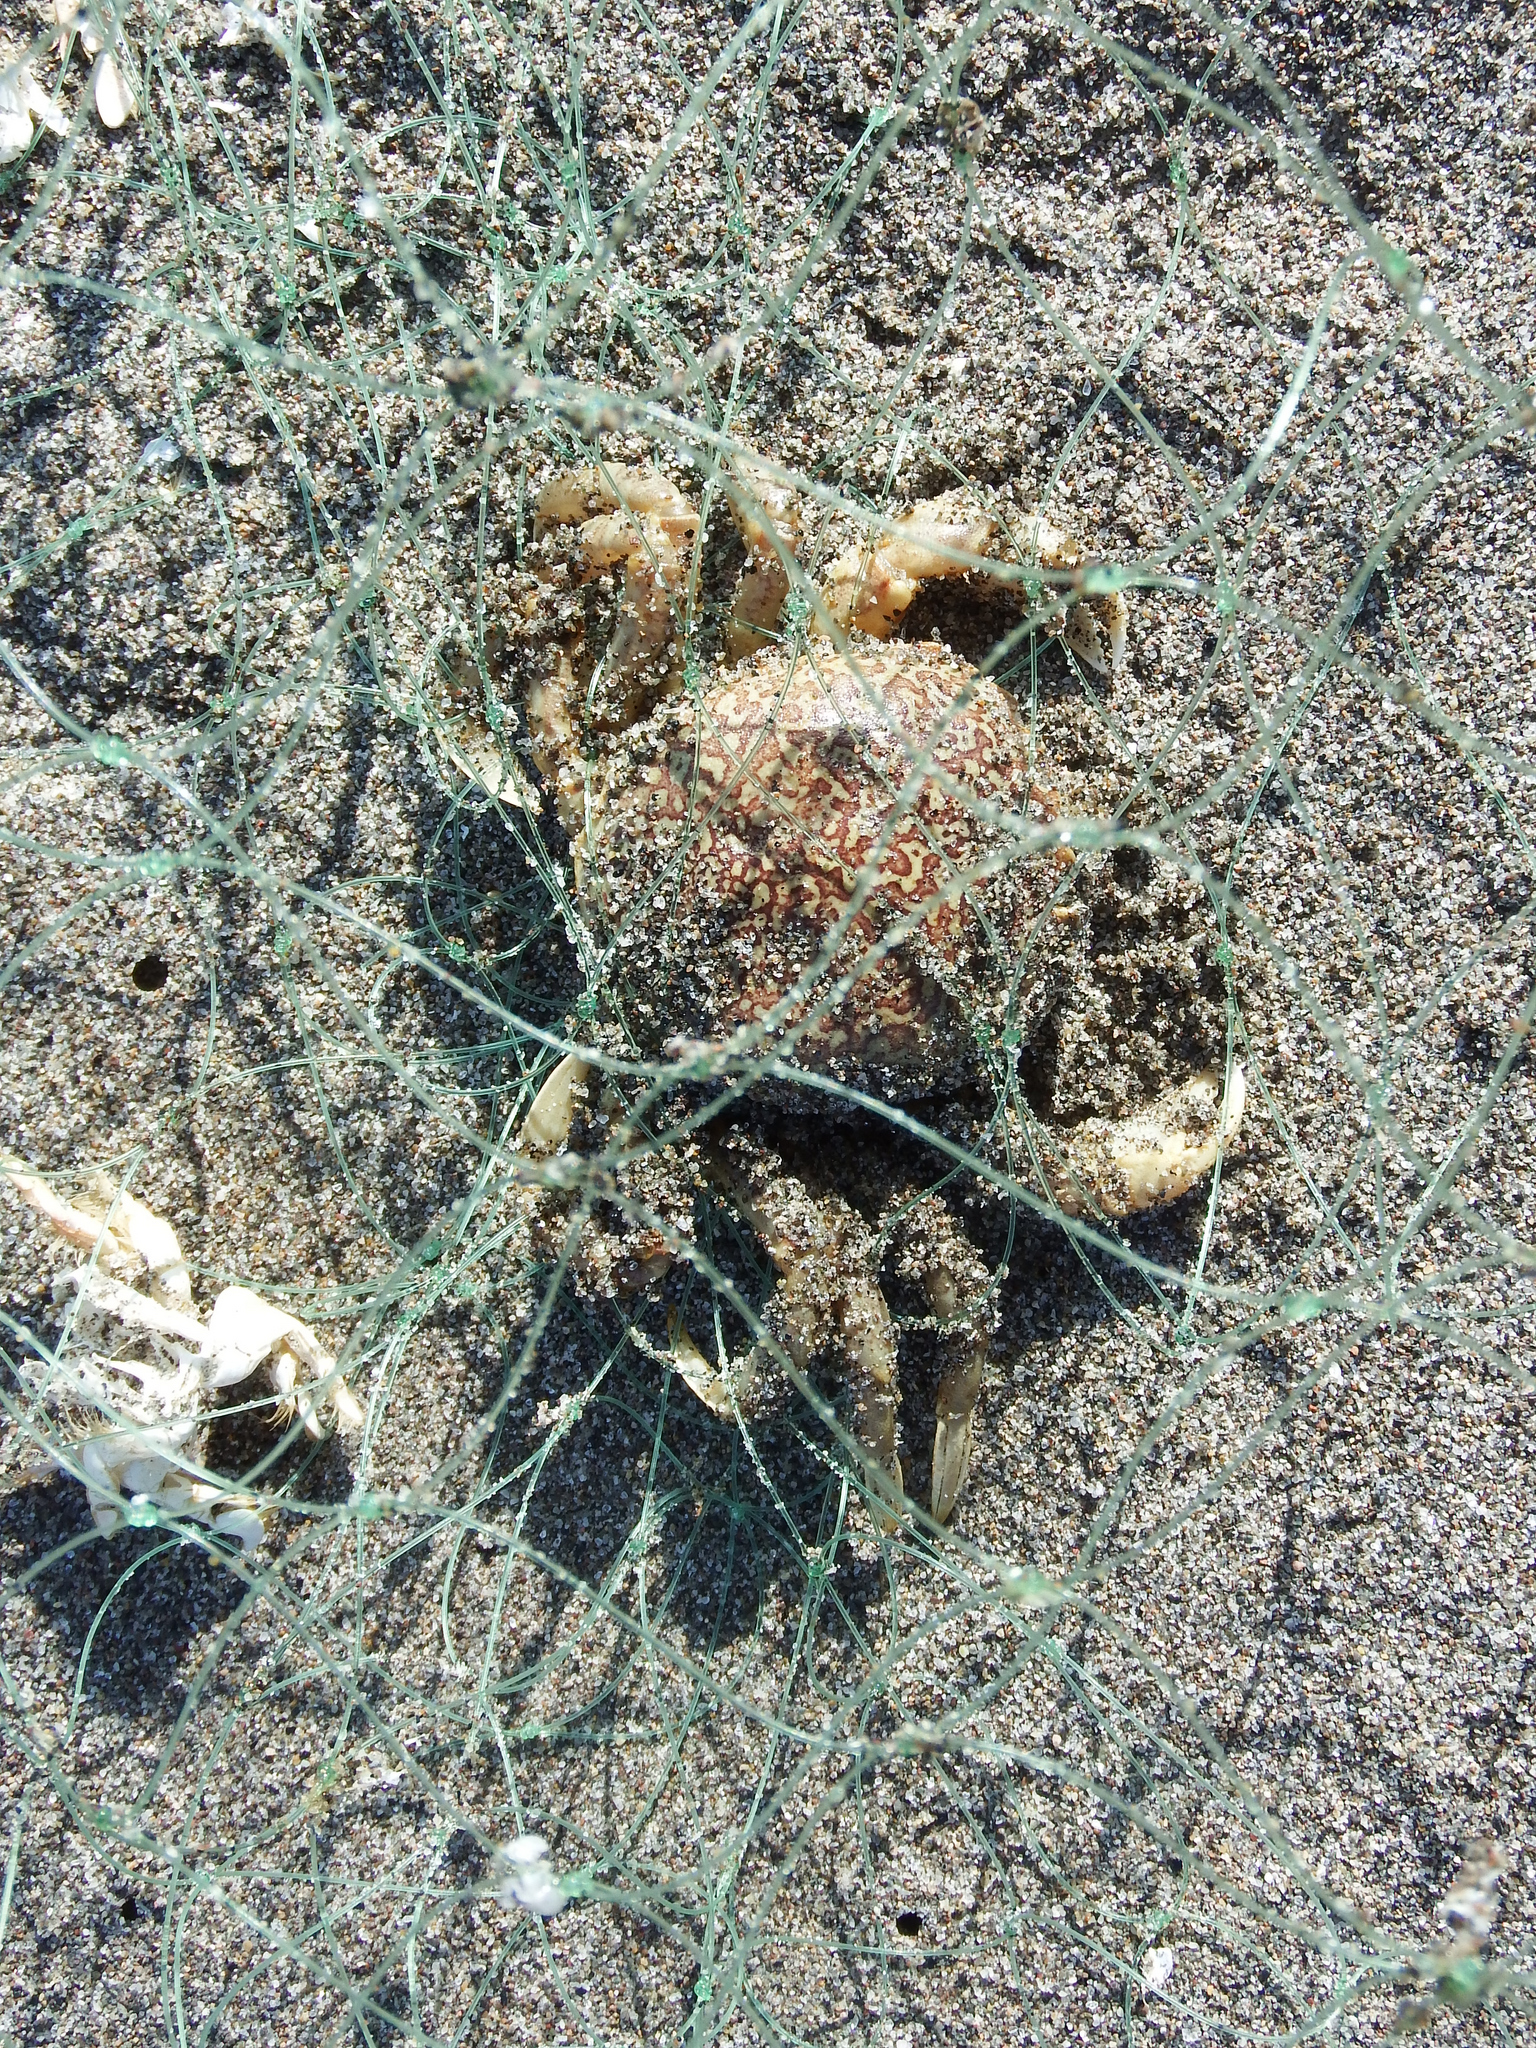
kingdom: Animalia
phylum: Arthropoda
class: Malacostraca
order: Decapoda
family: Belliidae
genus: Bellia
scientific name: Bellia picta
